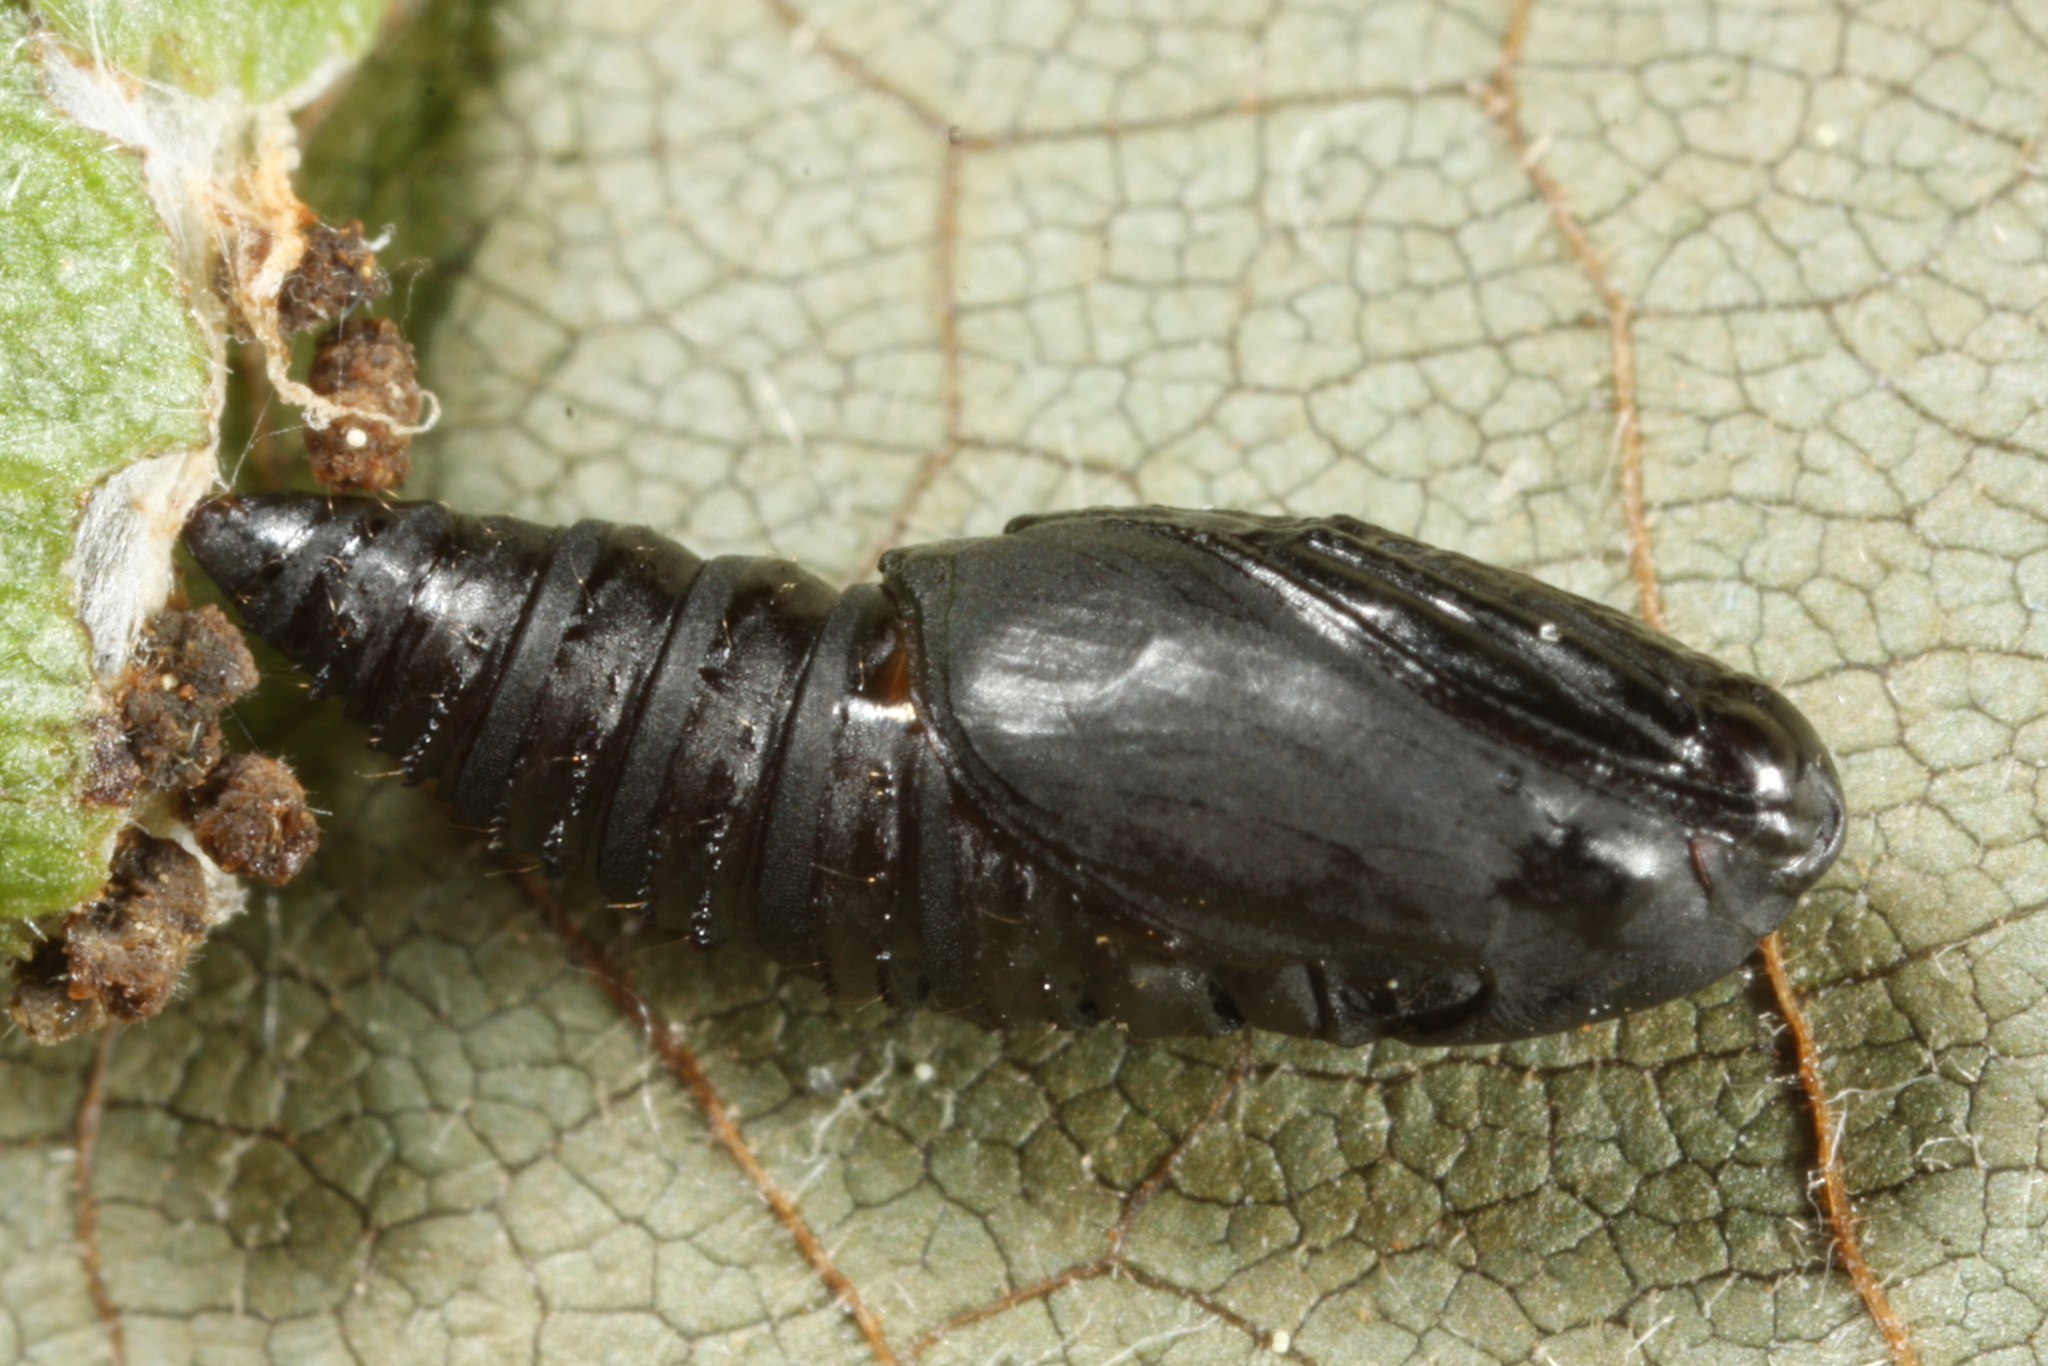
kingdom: Animalia
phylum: Arthropoda
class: Insecta
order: Lepidoptera
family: Tortricidae
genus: Hedya
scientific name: Hedya pruniana
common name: Plum tortrix
